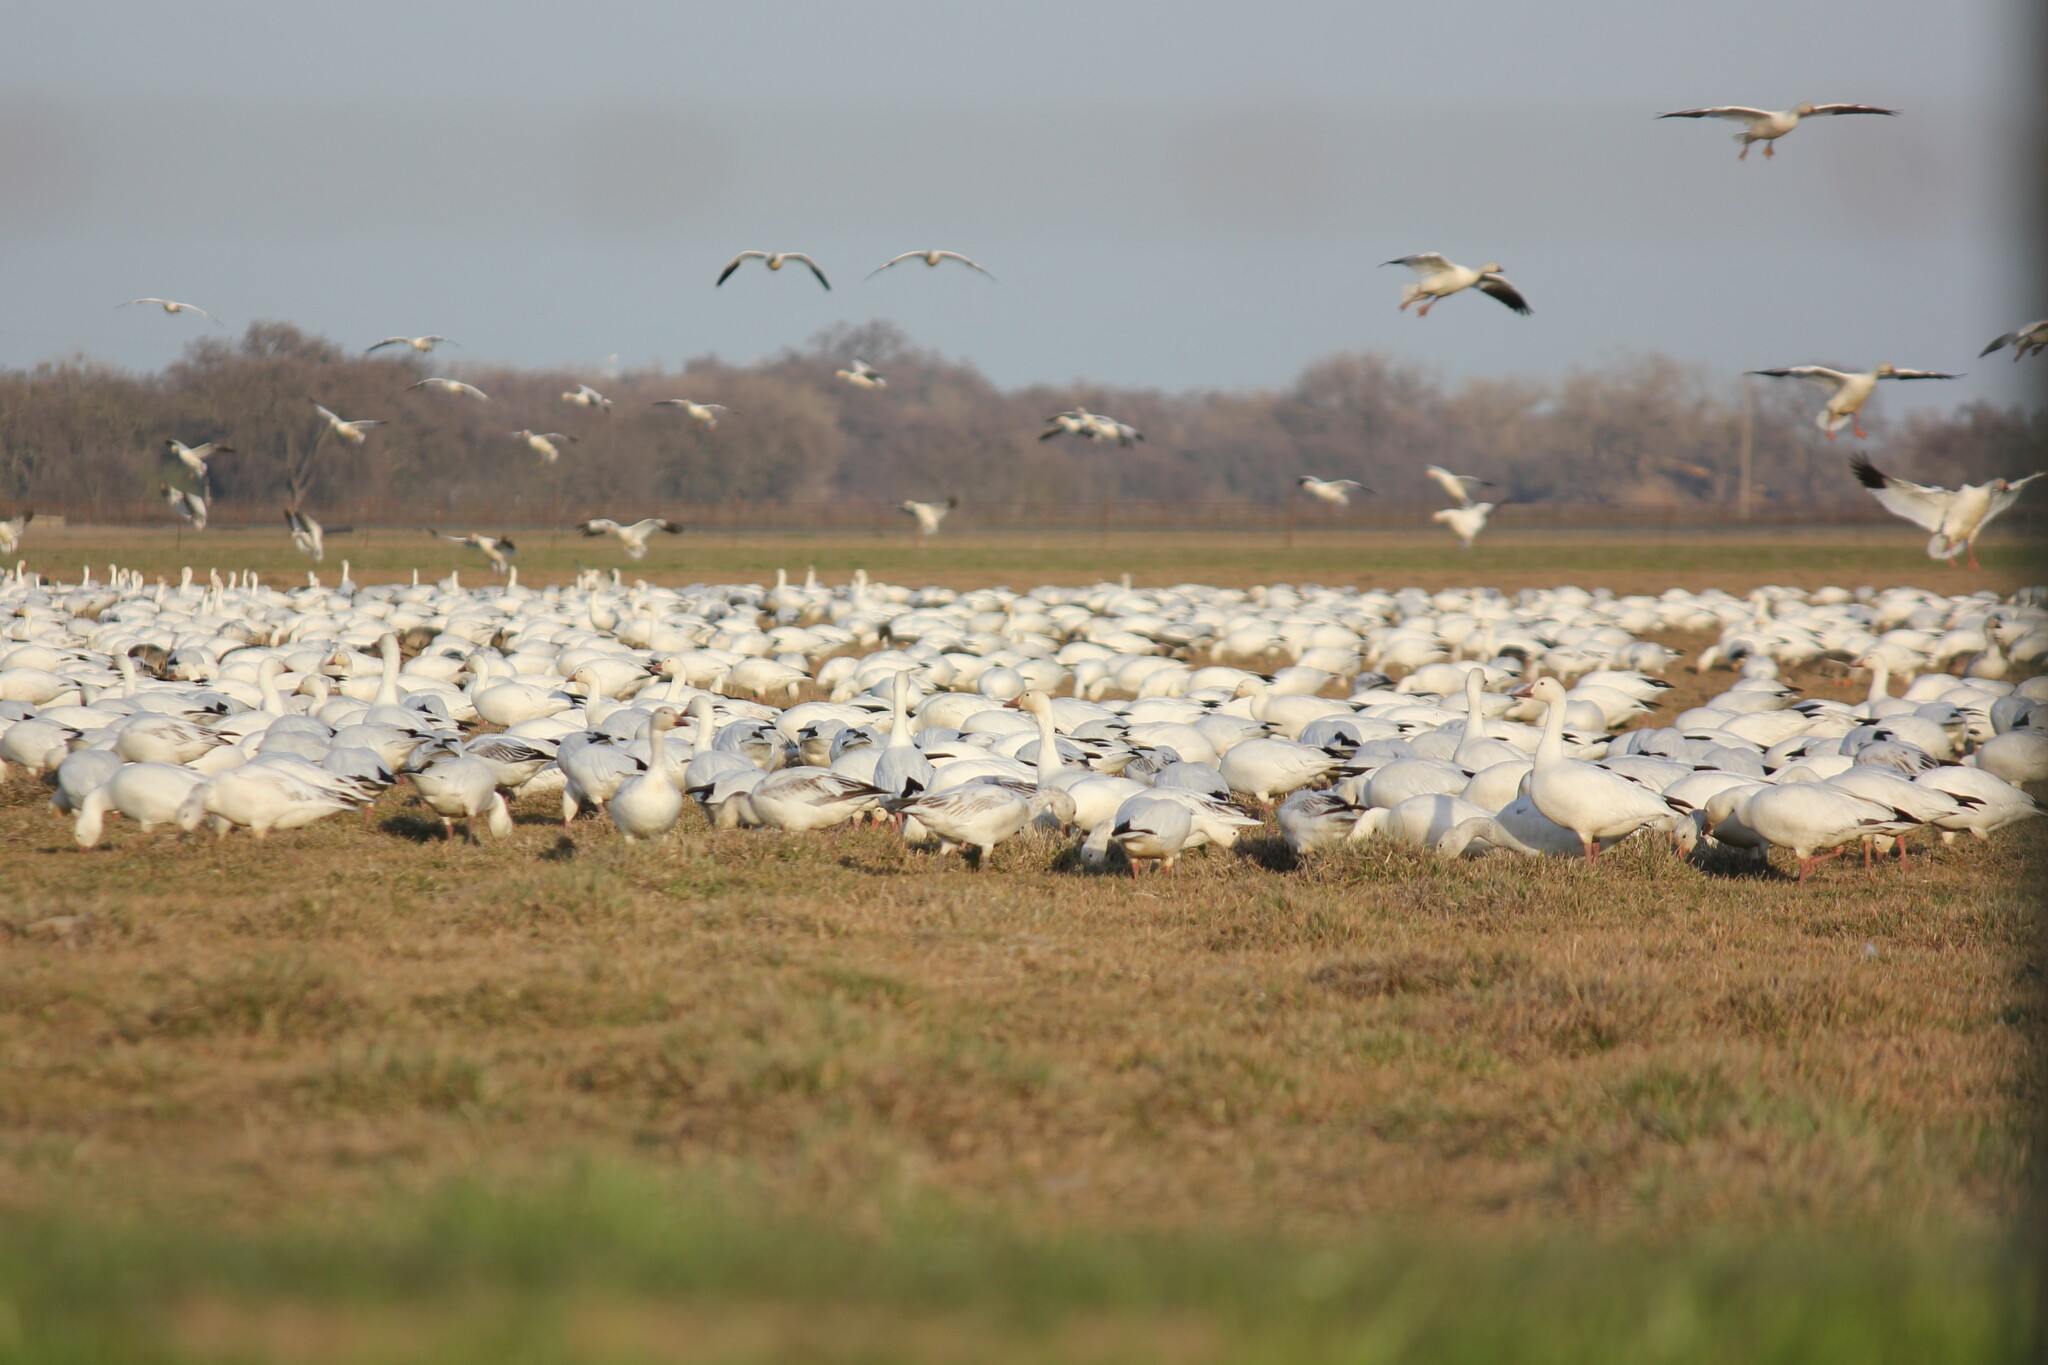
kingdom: Animalia
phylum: Chordata
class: Aves
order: Anseriformes
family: Anatidae
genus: Anser
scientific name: Anser caerulescens
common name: Snow goose
